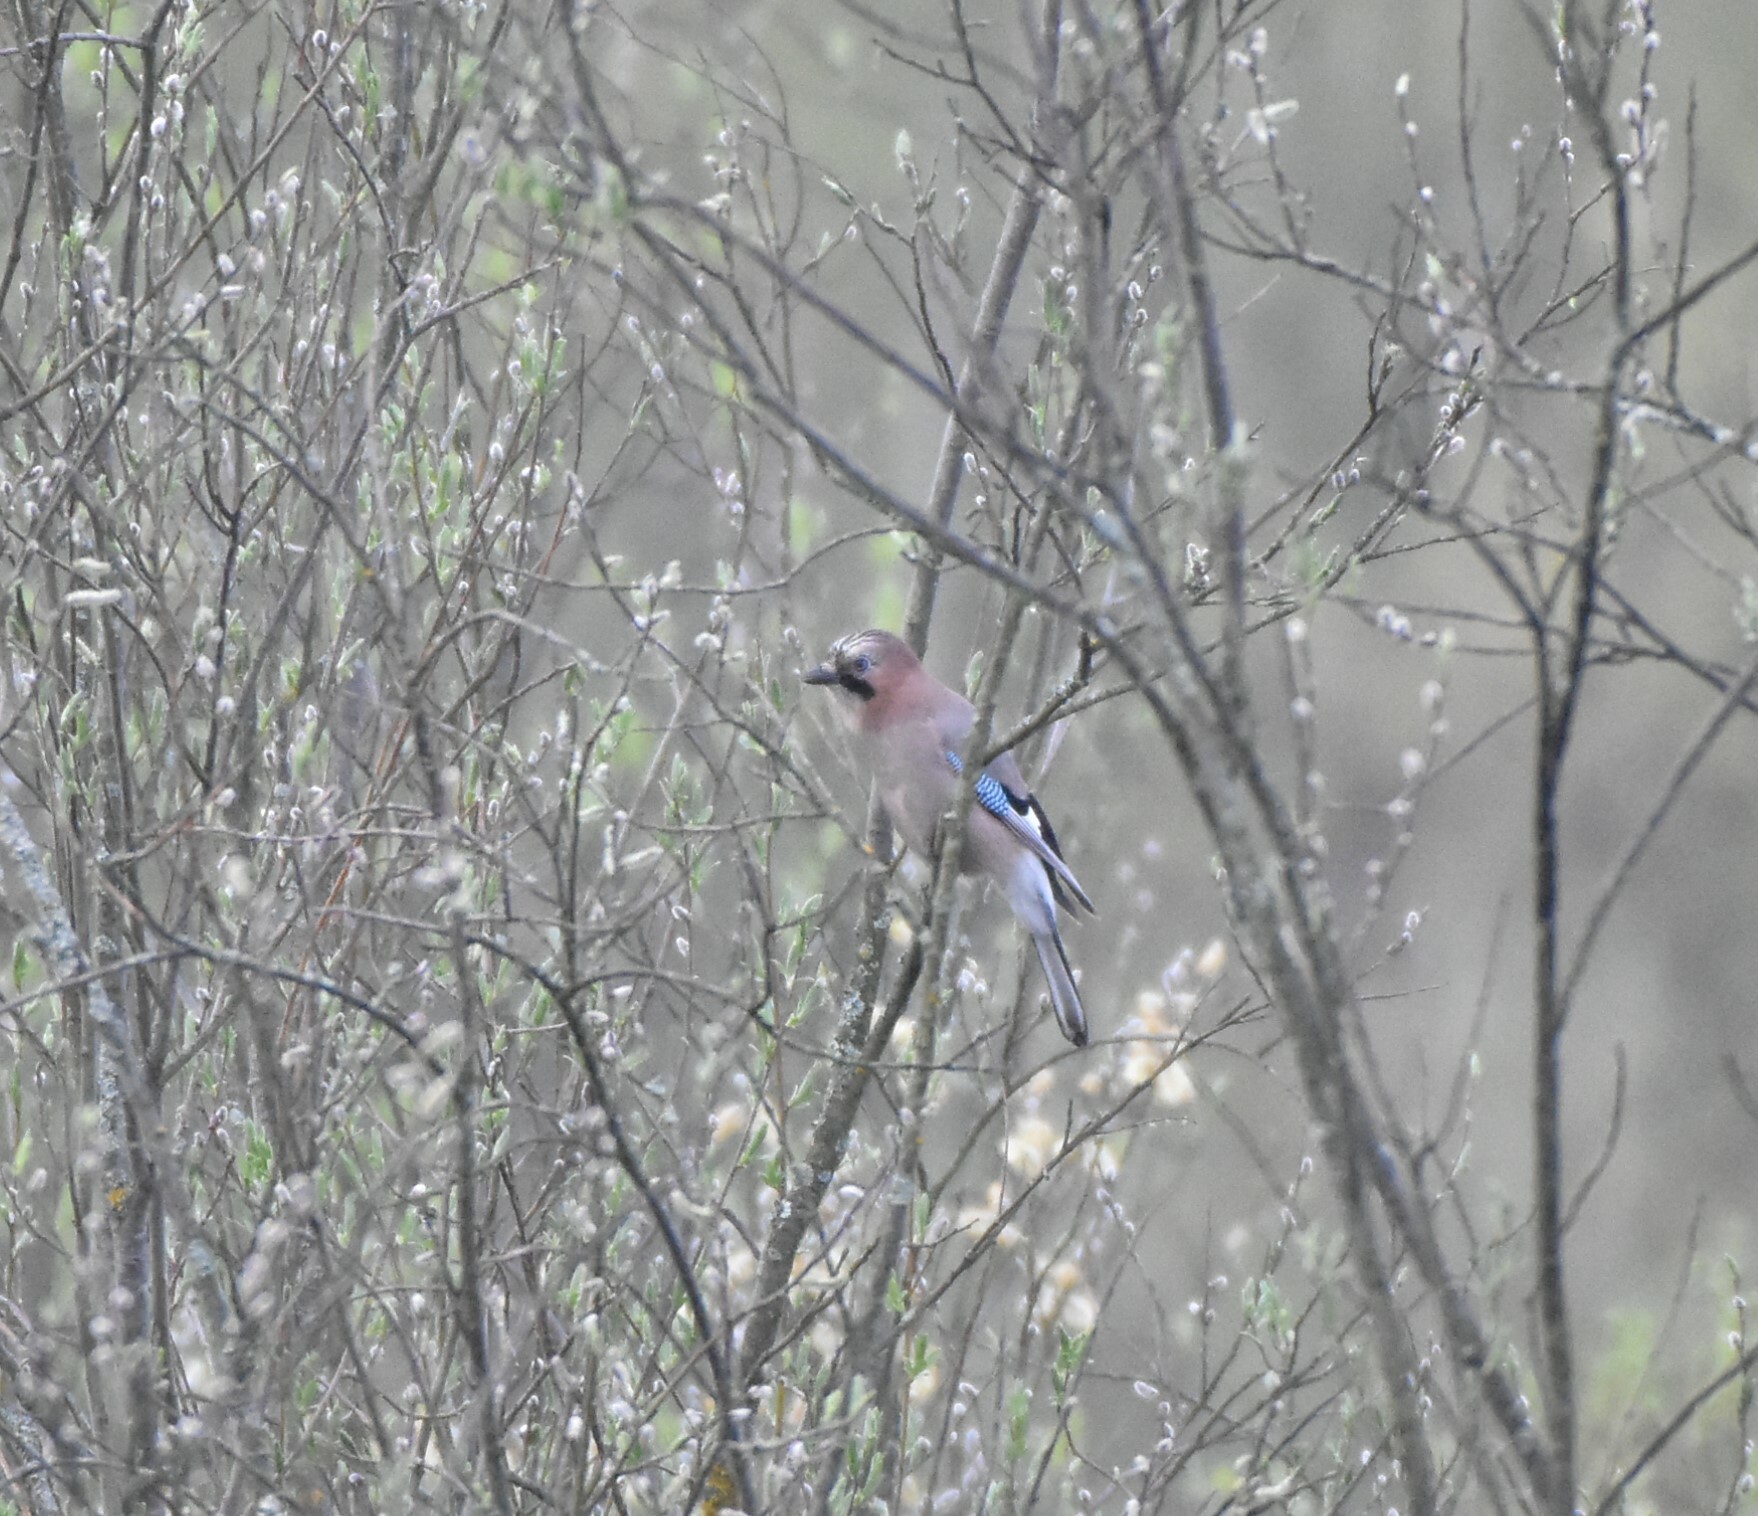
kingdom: Animalia
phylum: Chordata
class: Aves
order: Passeriformes
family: Corvidae
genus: Garrulus
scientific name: Garrulus glandarius
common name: Eurasian jay
